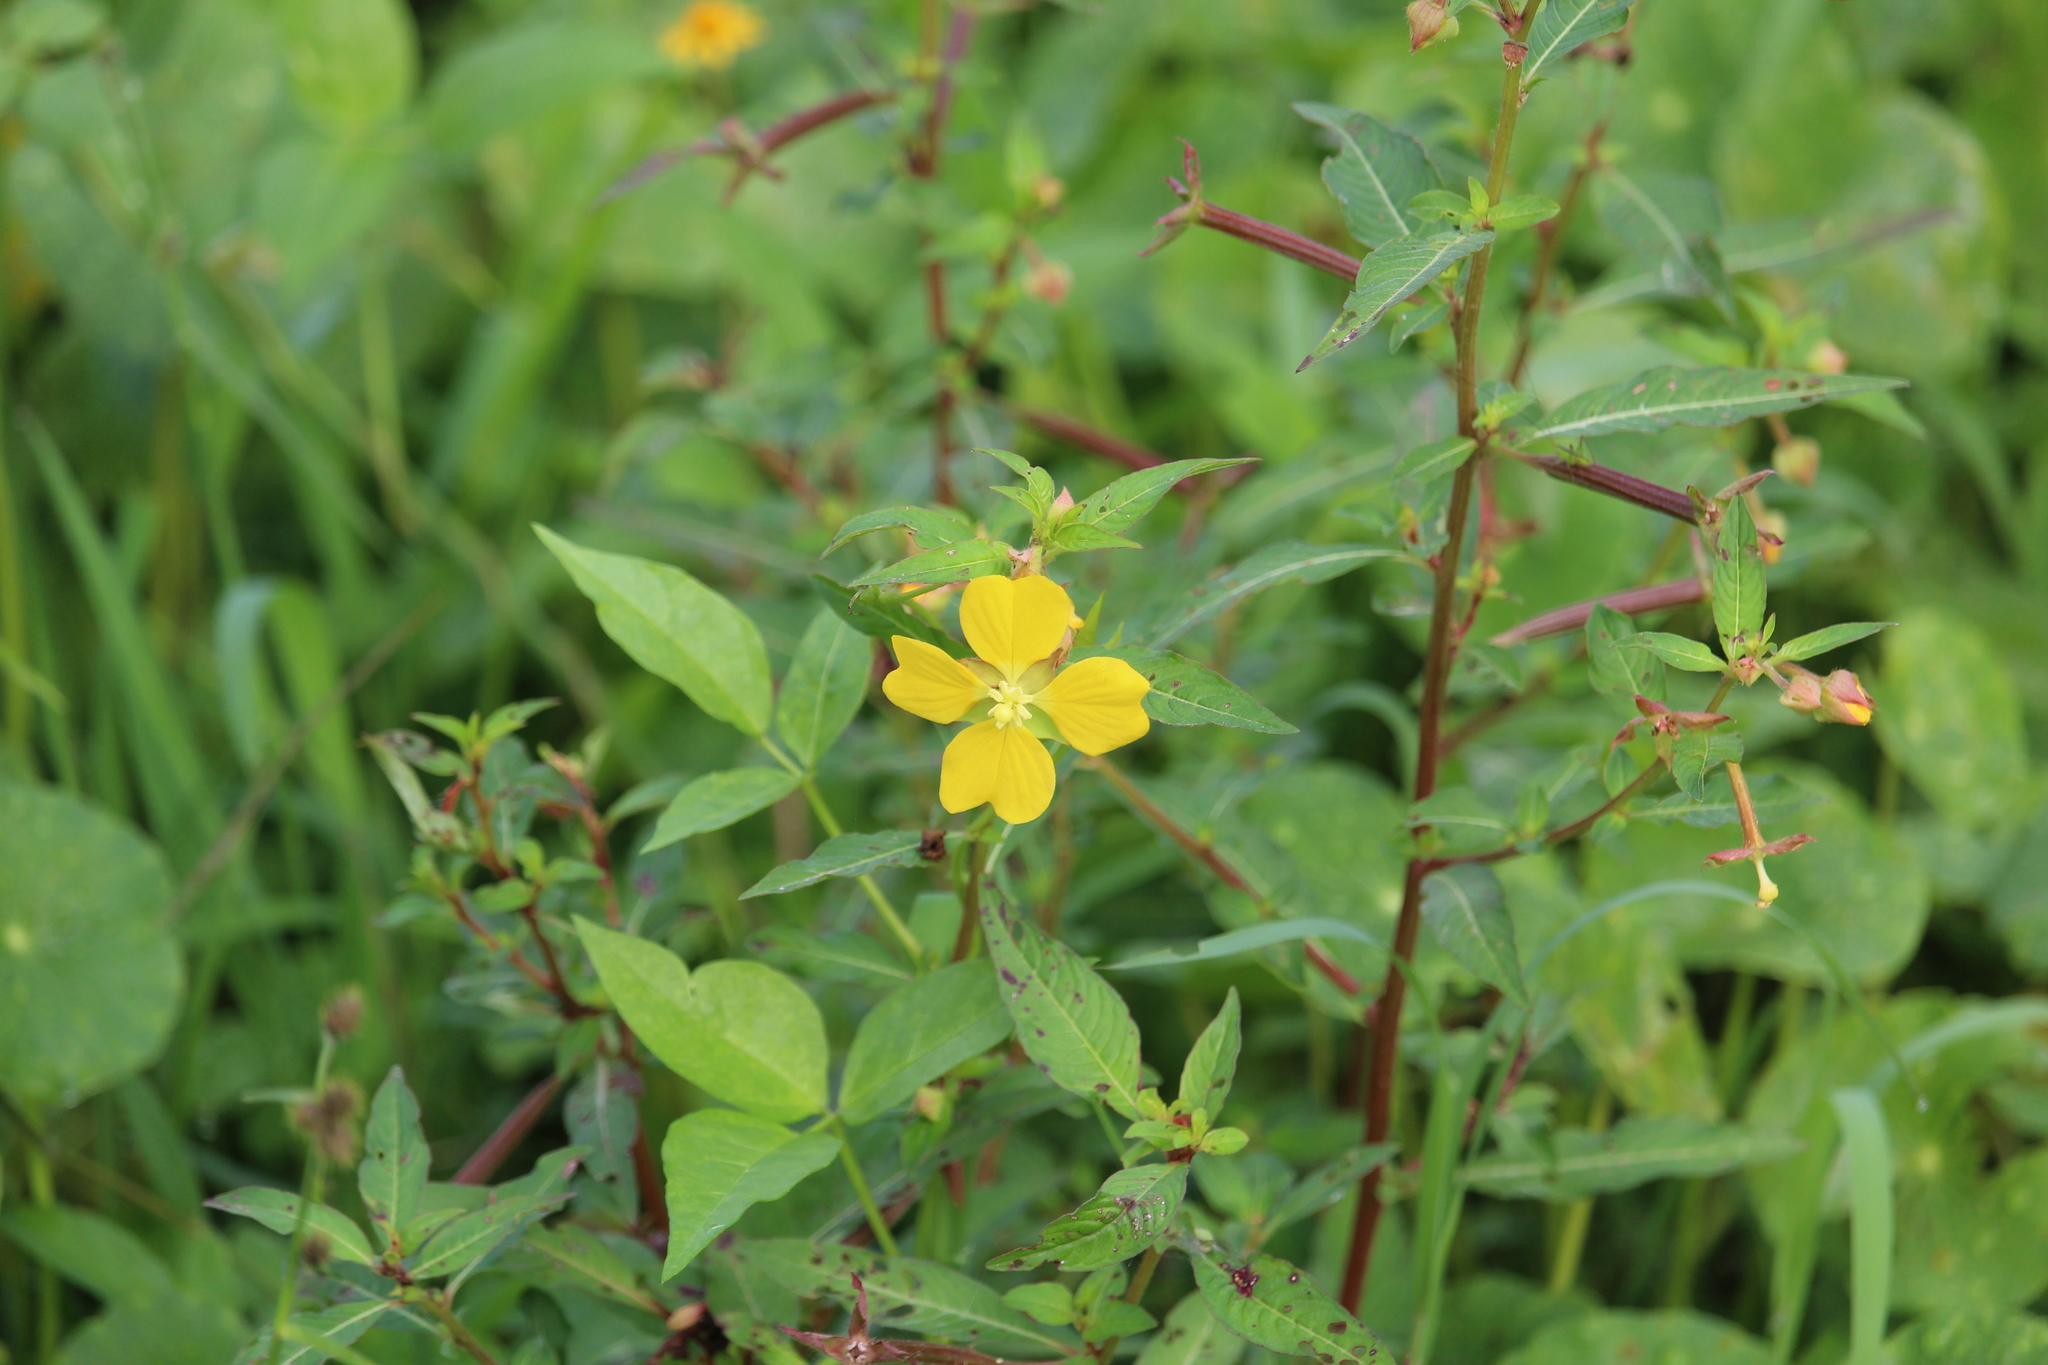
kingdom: Plantae
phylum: Tracheophyta
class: Magnoliopsida
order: Myrtales
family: Onagraceae
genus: Ludwigia
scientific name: Ludwigia octovalvis
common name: Water-primrose
